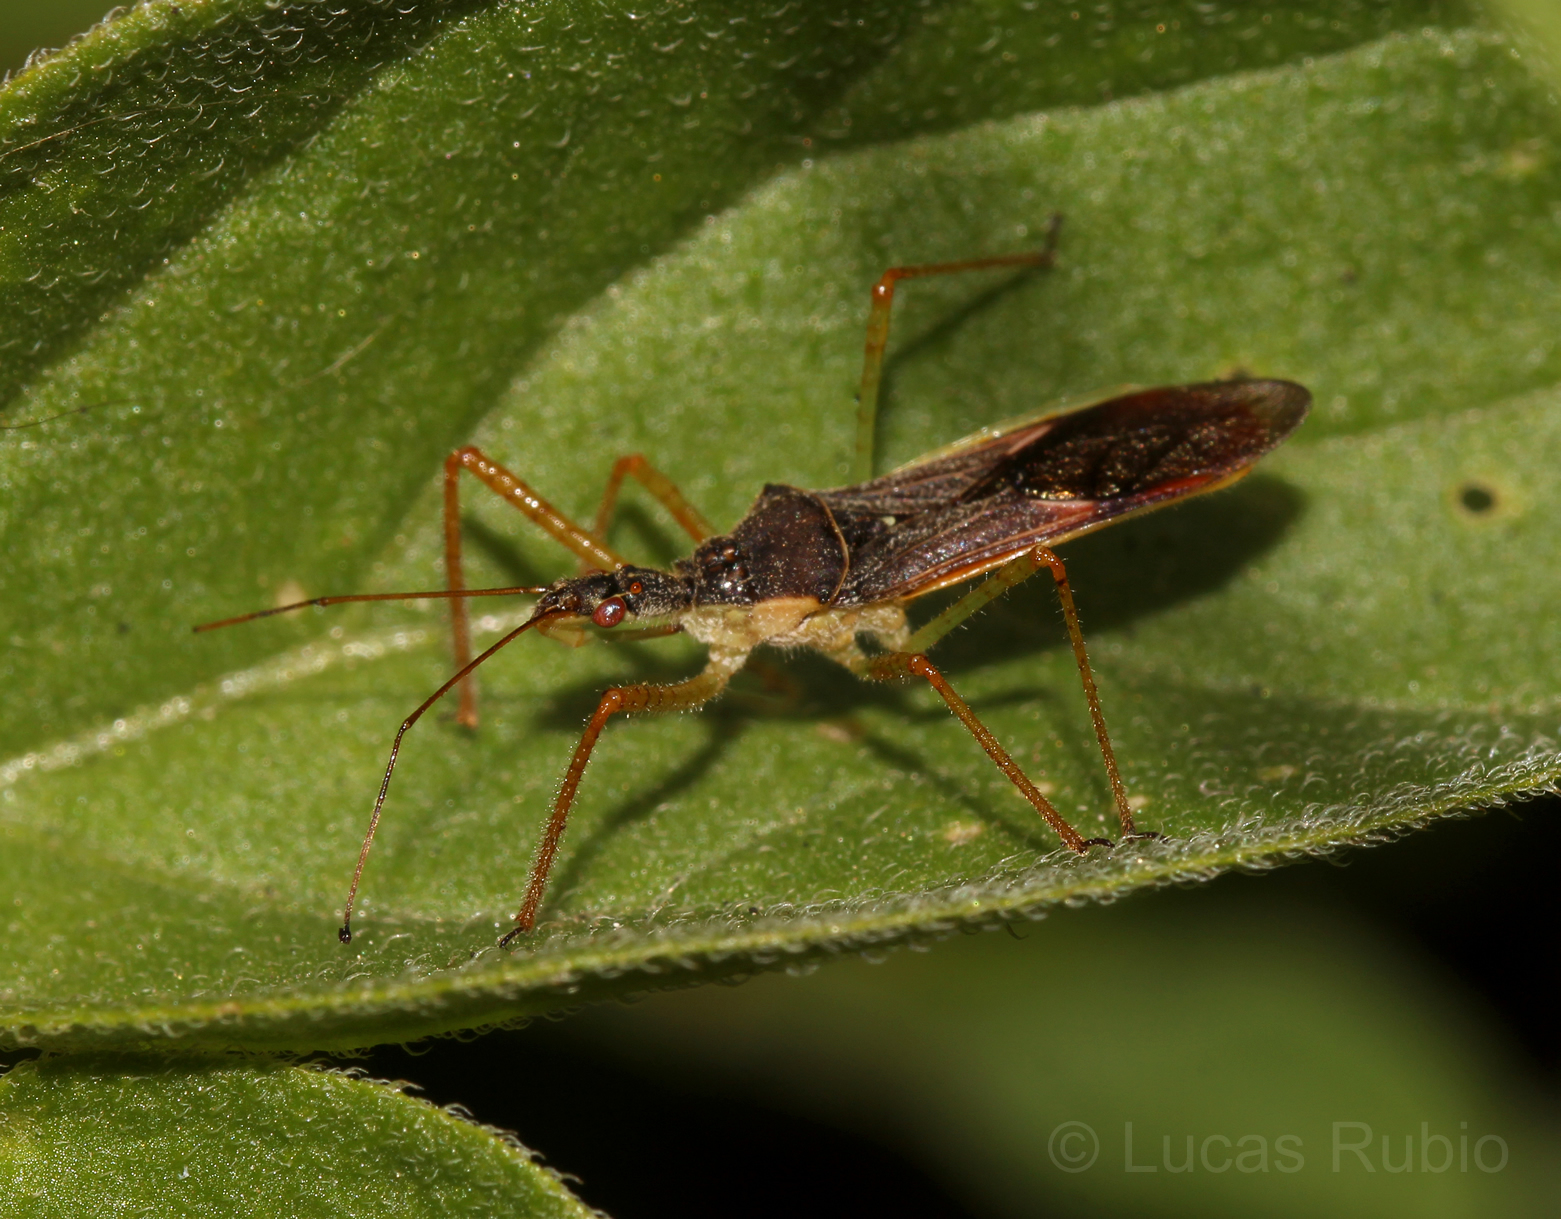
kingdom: Animalia
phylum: Arthropoda
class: Insecta
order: Hemiptera
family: Reduviidae
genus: Zelus
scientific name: Zelus renardii
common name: Assassin bug
